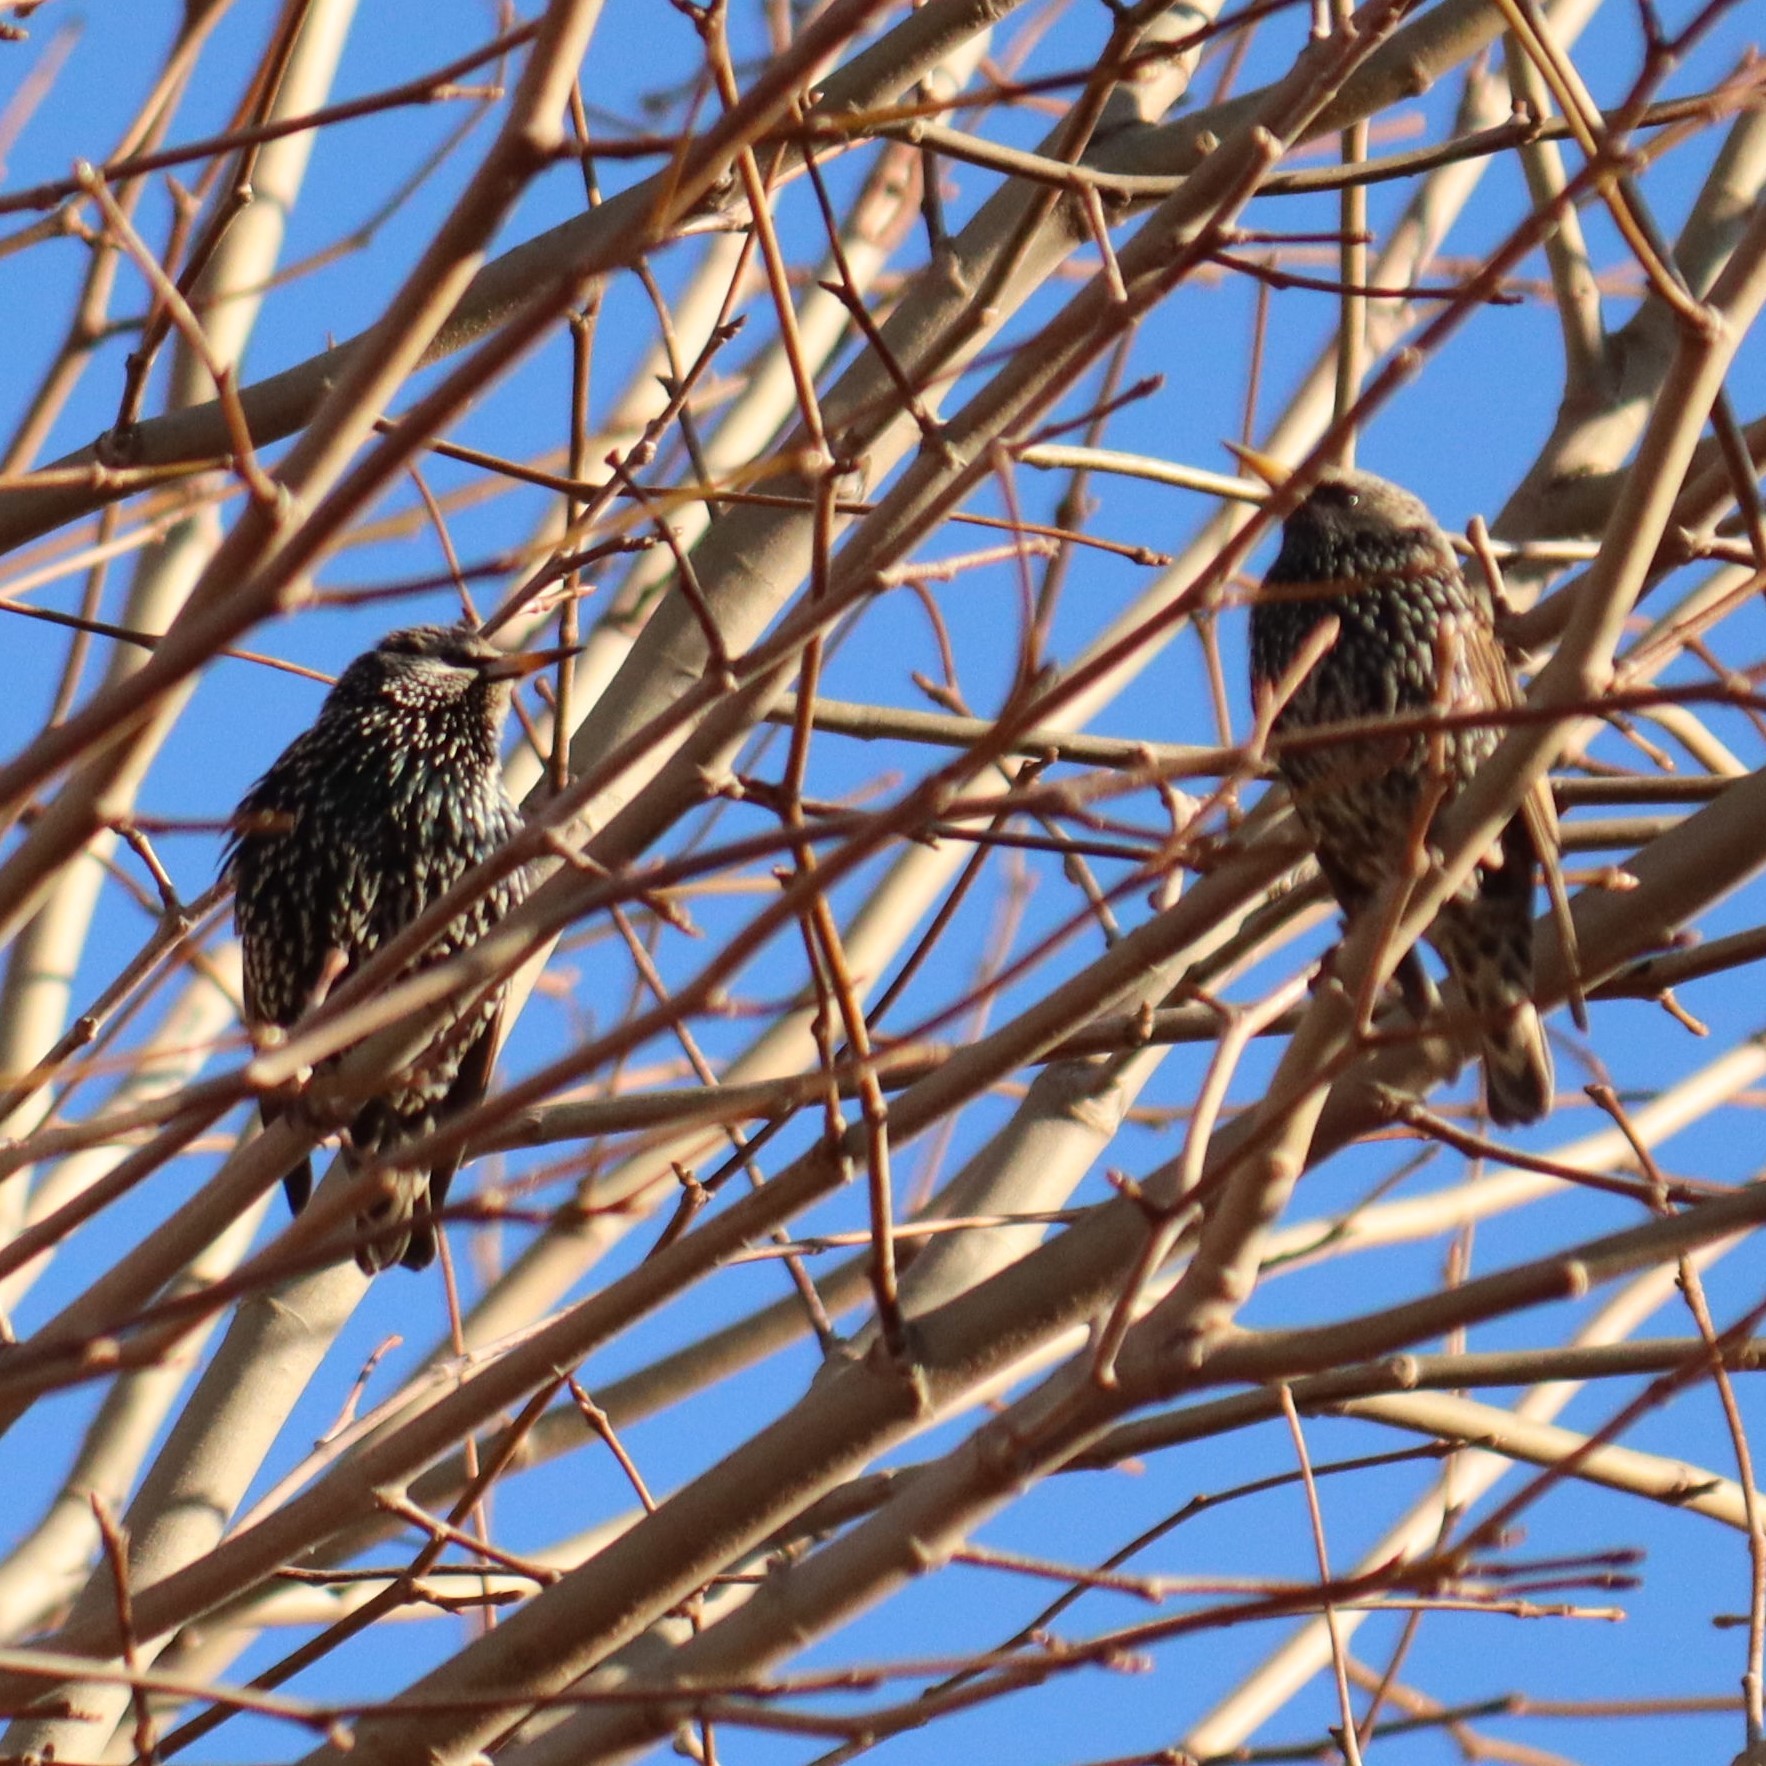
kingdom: Animalia
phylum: Chordata
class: Aves
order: Passeriformes
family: Sturnidae
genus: Sturnus
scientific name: Sturnus vulgaris
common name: Common starling
